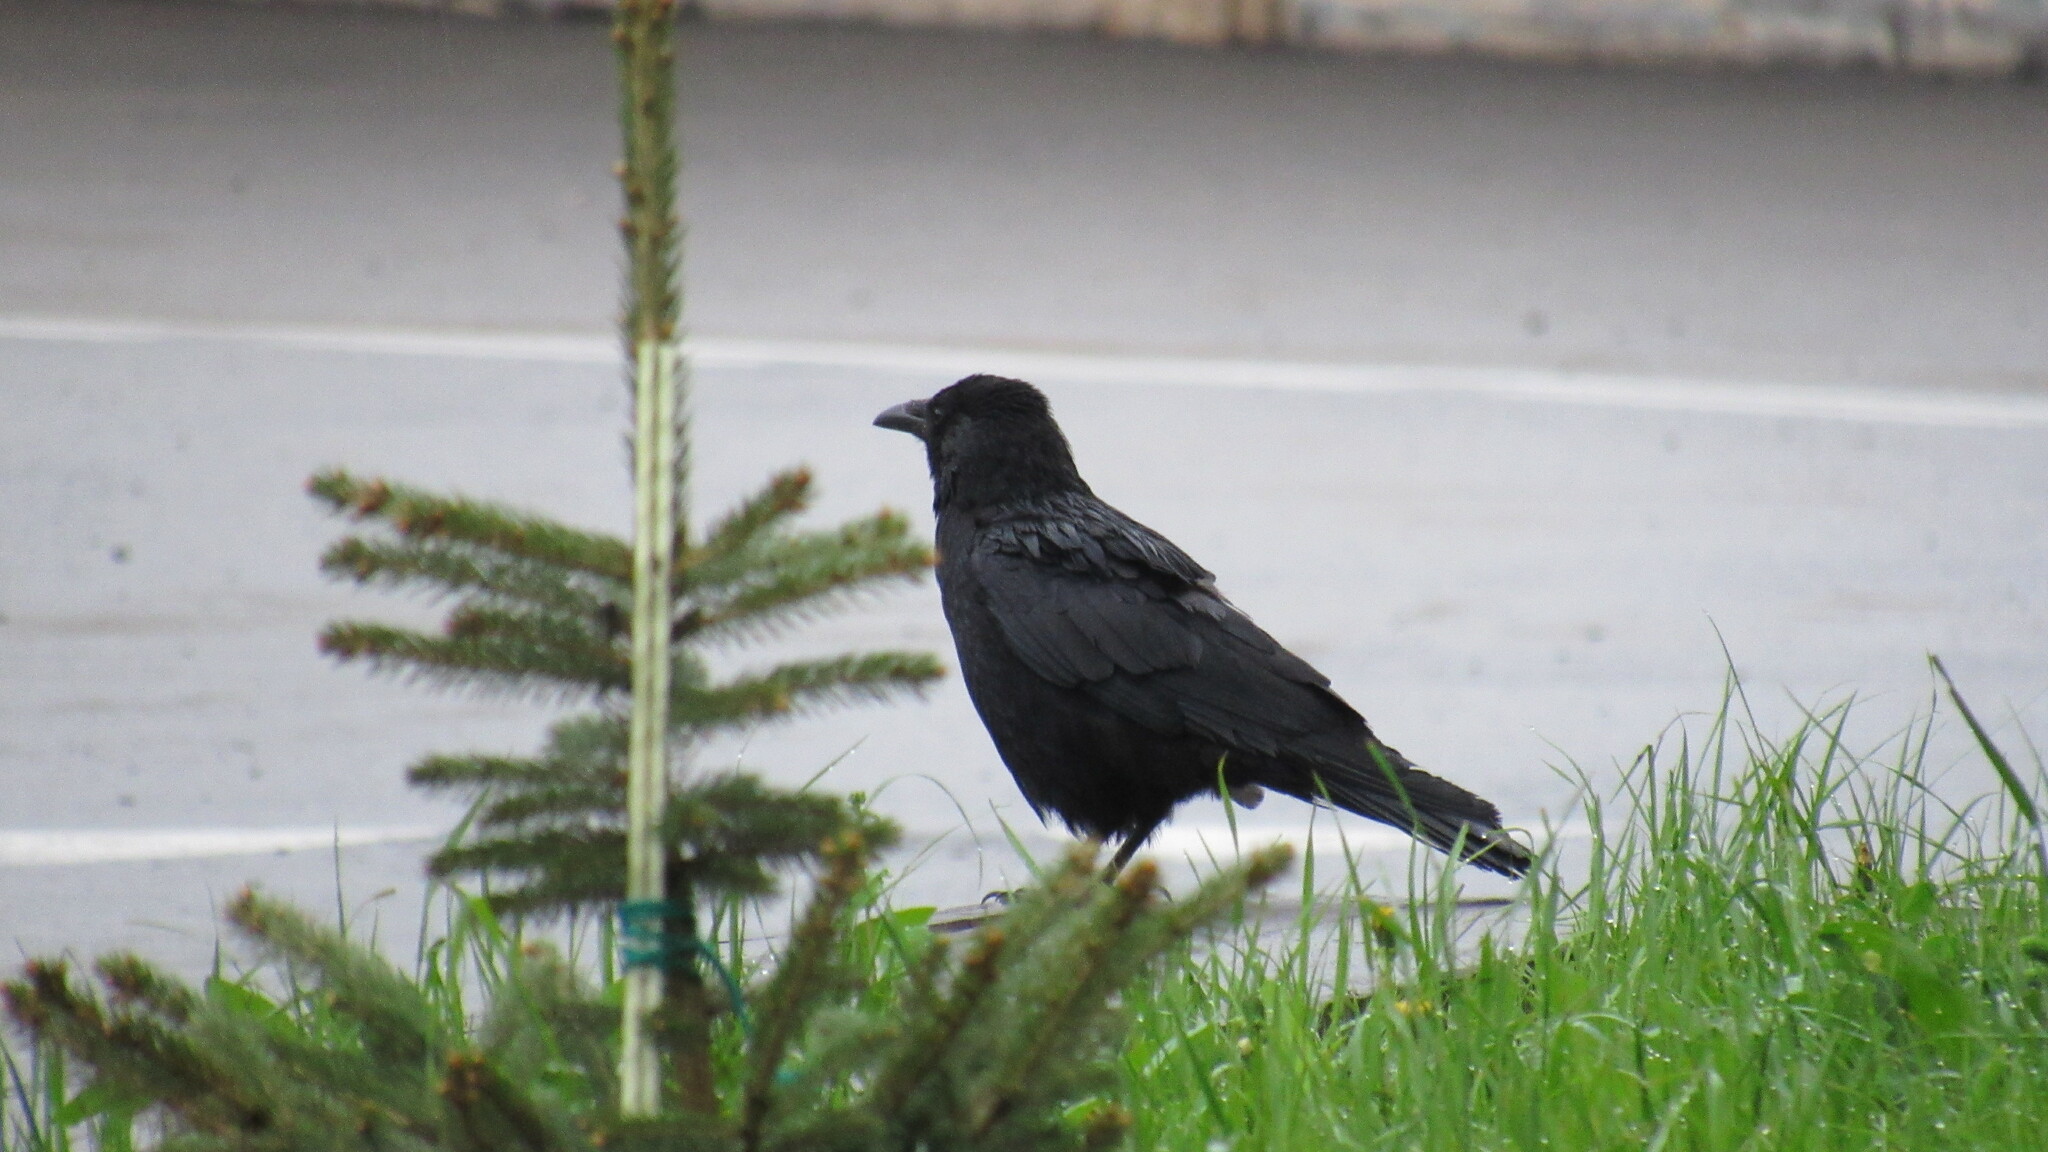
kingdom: Animalia
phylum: Chordata
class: Aves
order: Passeriformes
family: Corvidae
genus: Corvus
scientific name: Corvus corone
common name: Carrion crow
